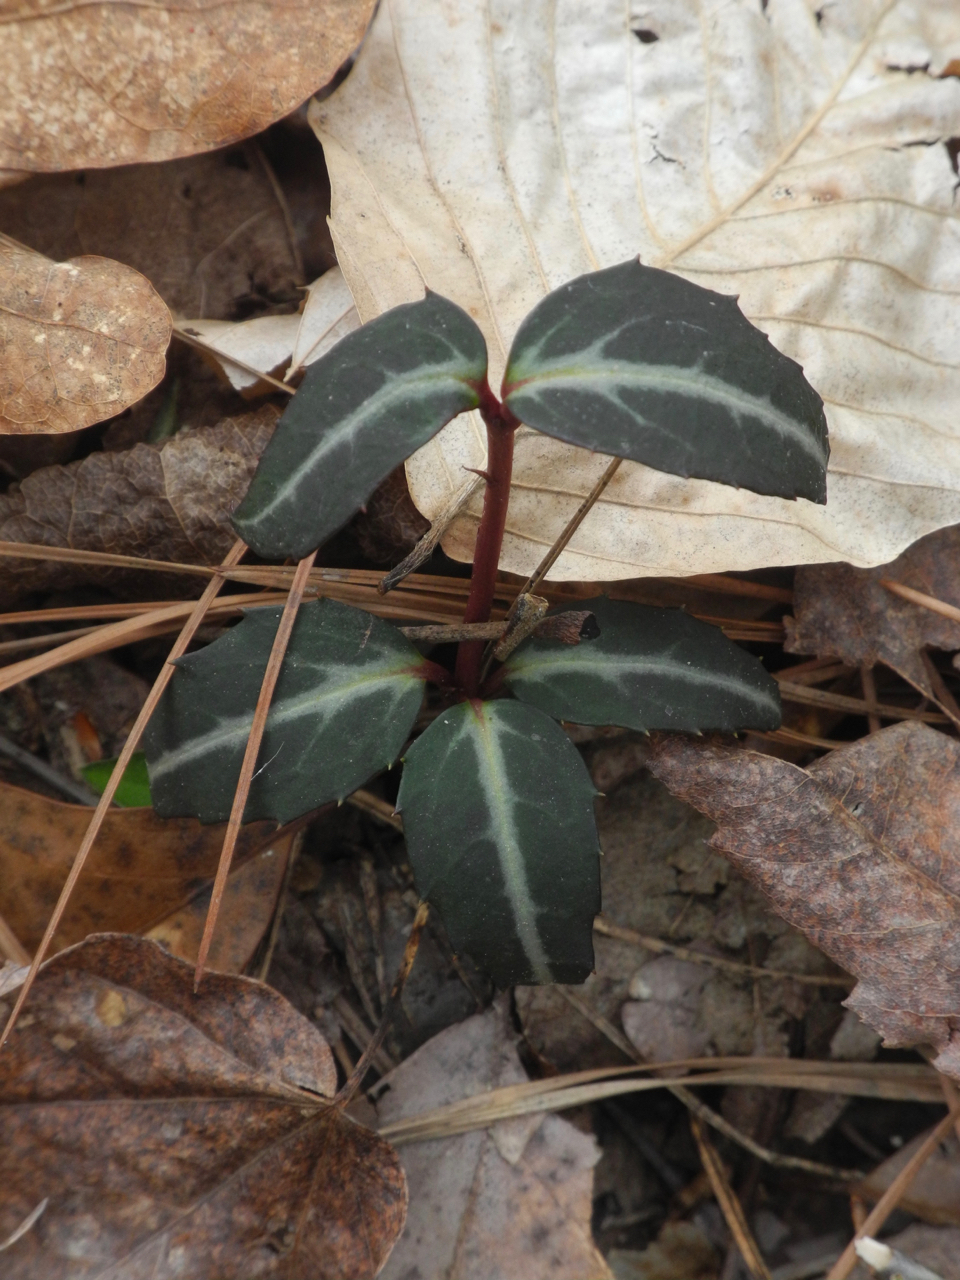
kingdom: Plantae
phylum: Tracheophyta
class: Magnoliopsida
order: Ericales
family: Ericaceae
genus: Chimaphila
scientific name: Chimaphila maculata
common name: Spotted pipsissewa
